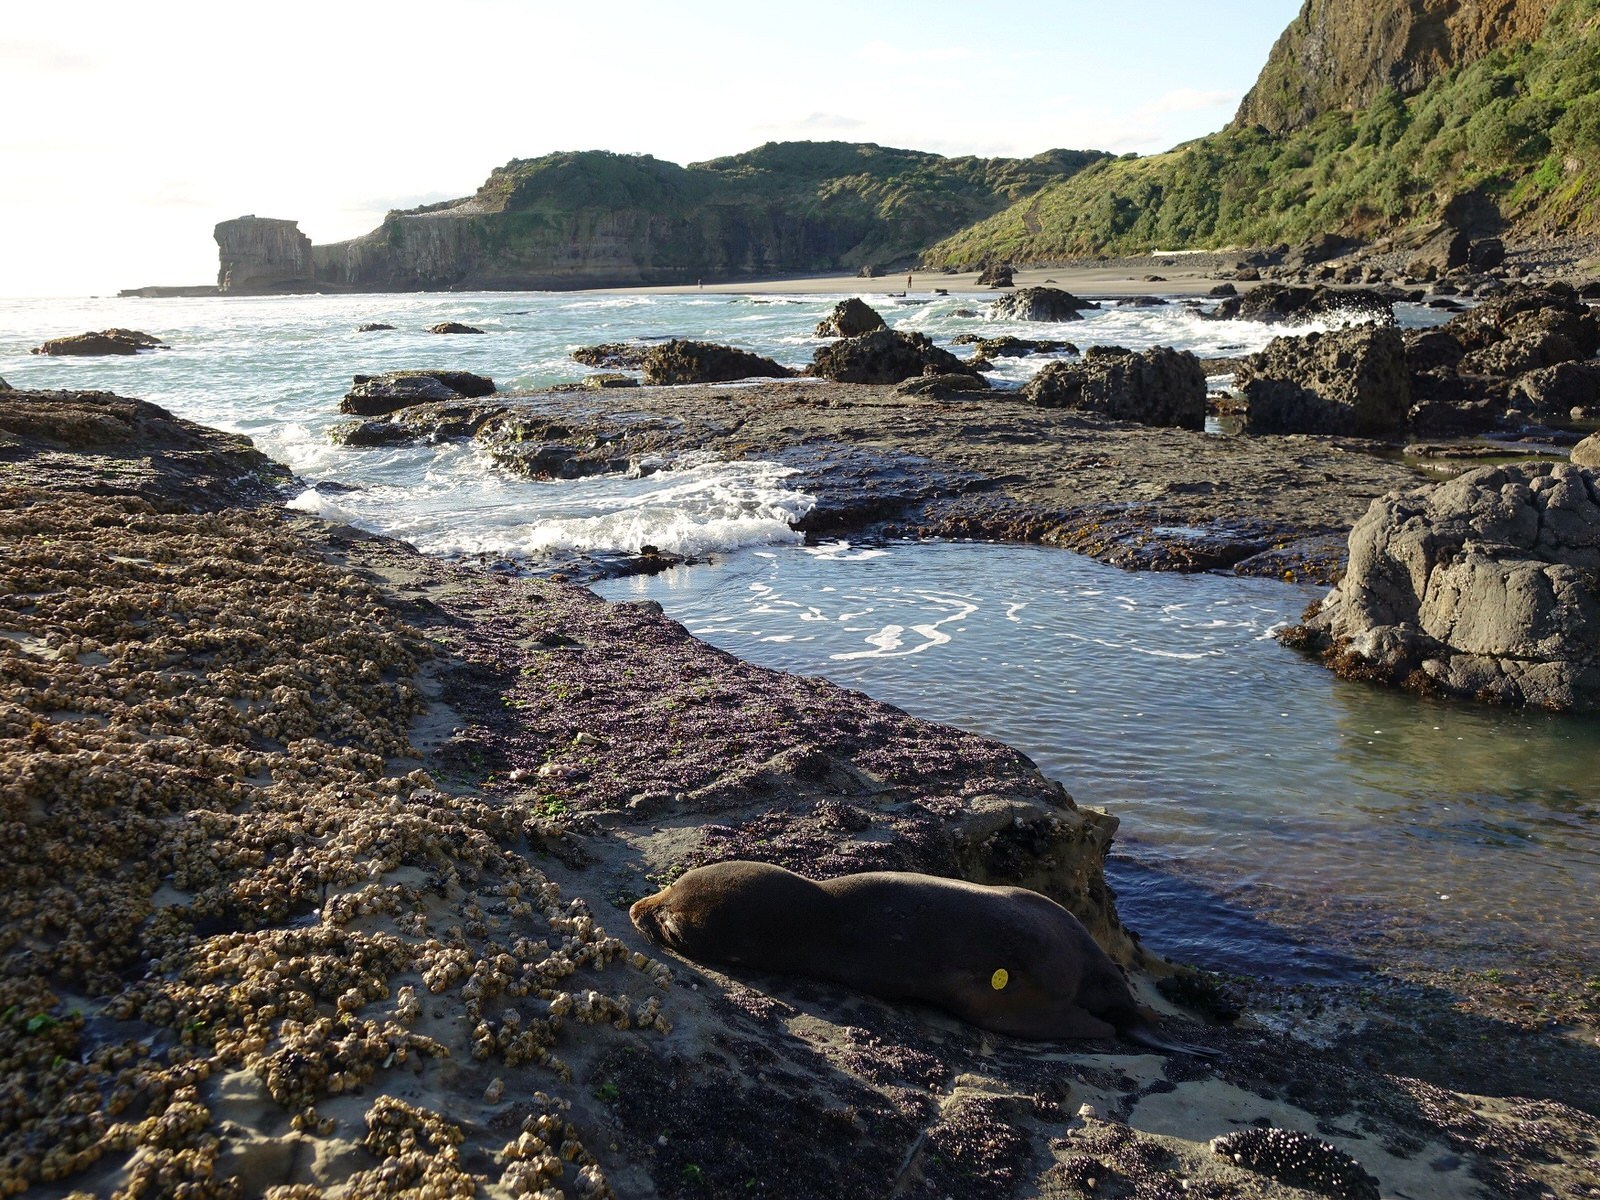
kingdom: Animalia
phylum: Chordata
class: Mammalia
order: Carnivora
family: Otariidae
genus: Arctocephalus
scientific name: Arctocephalus forsteri
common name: New zealand fur seal
